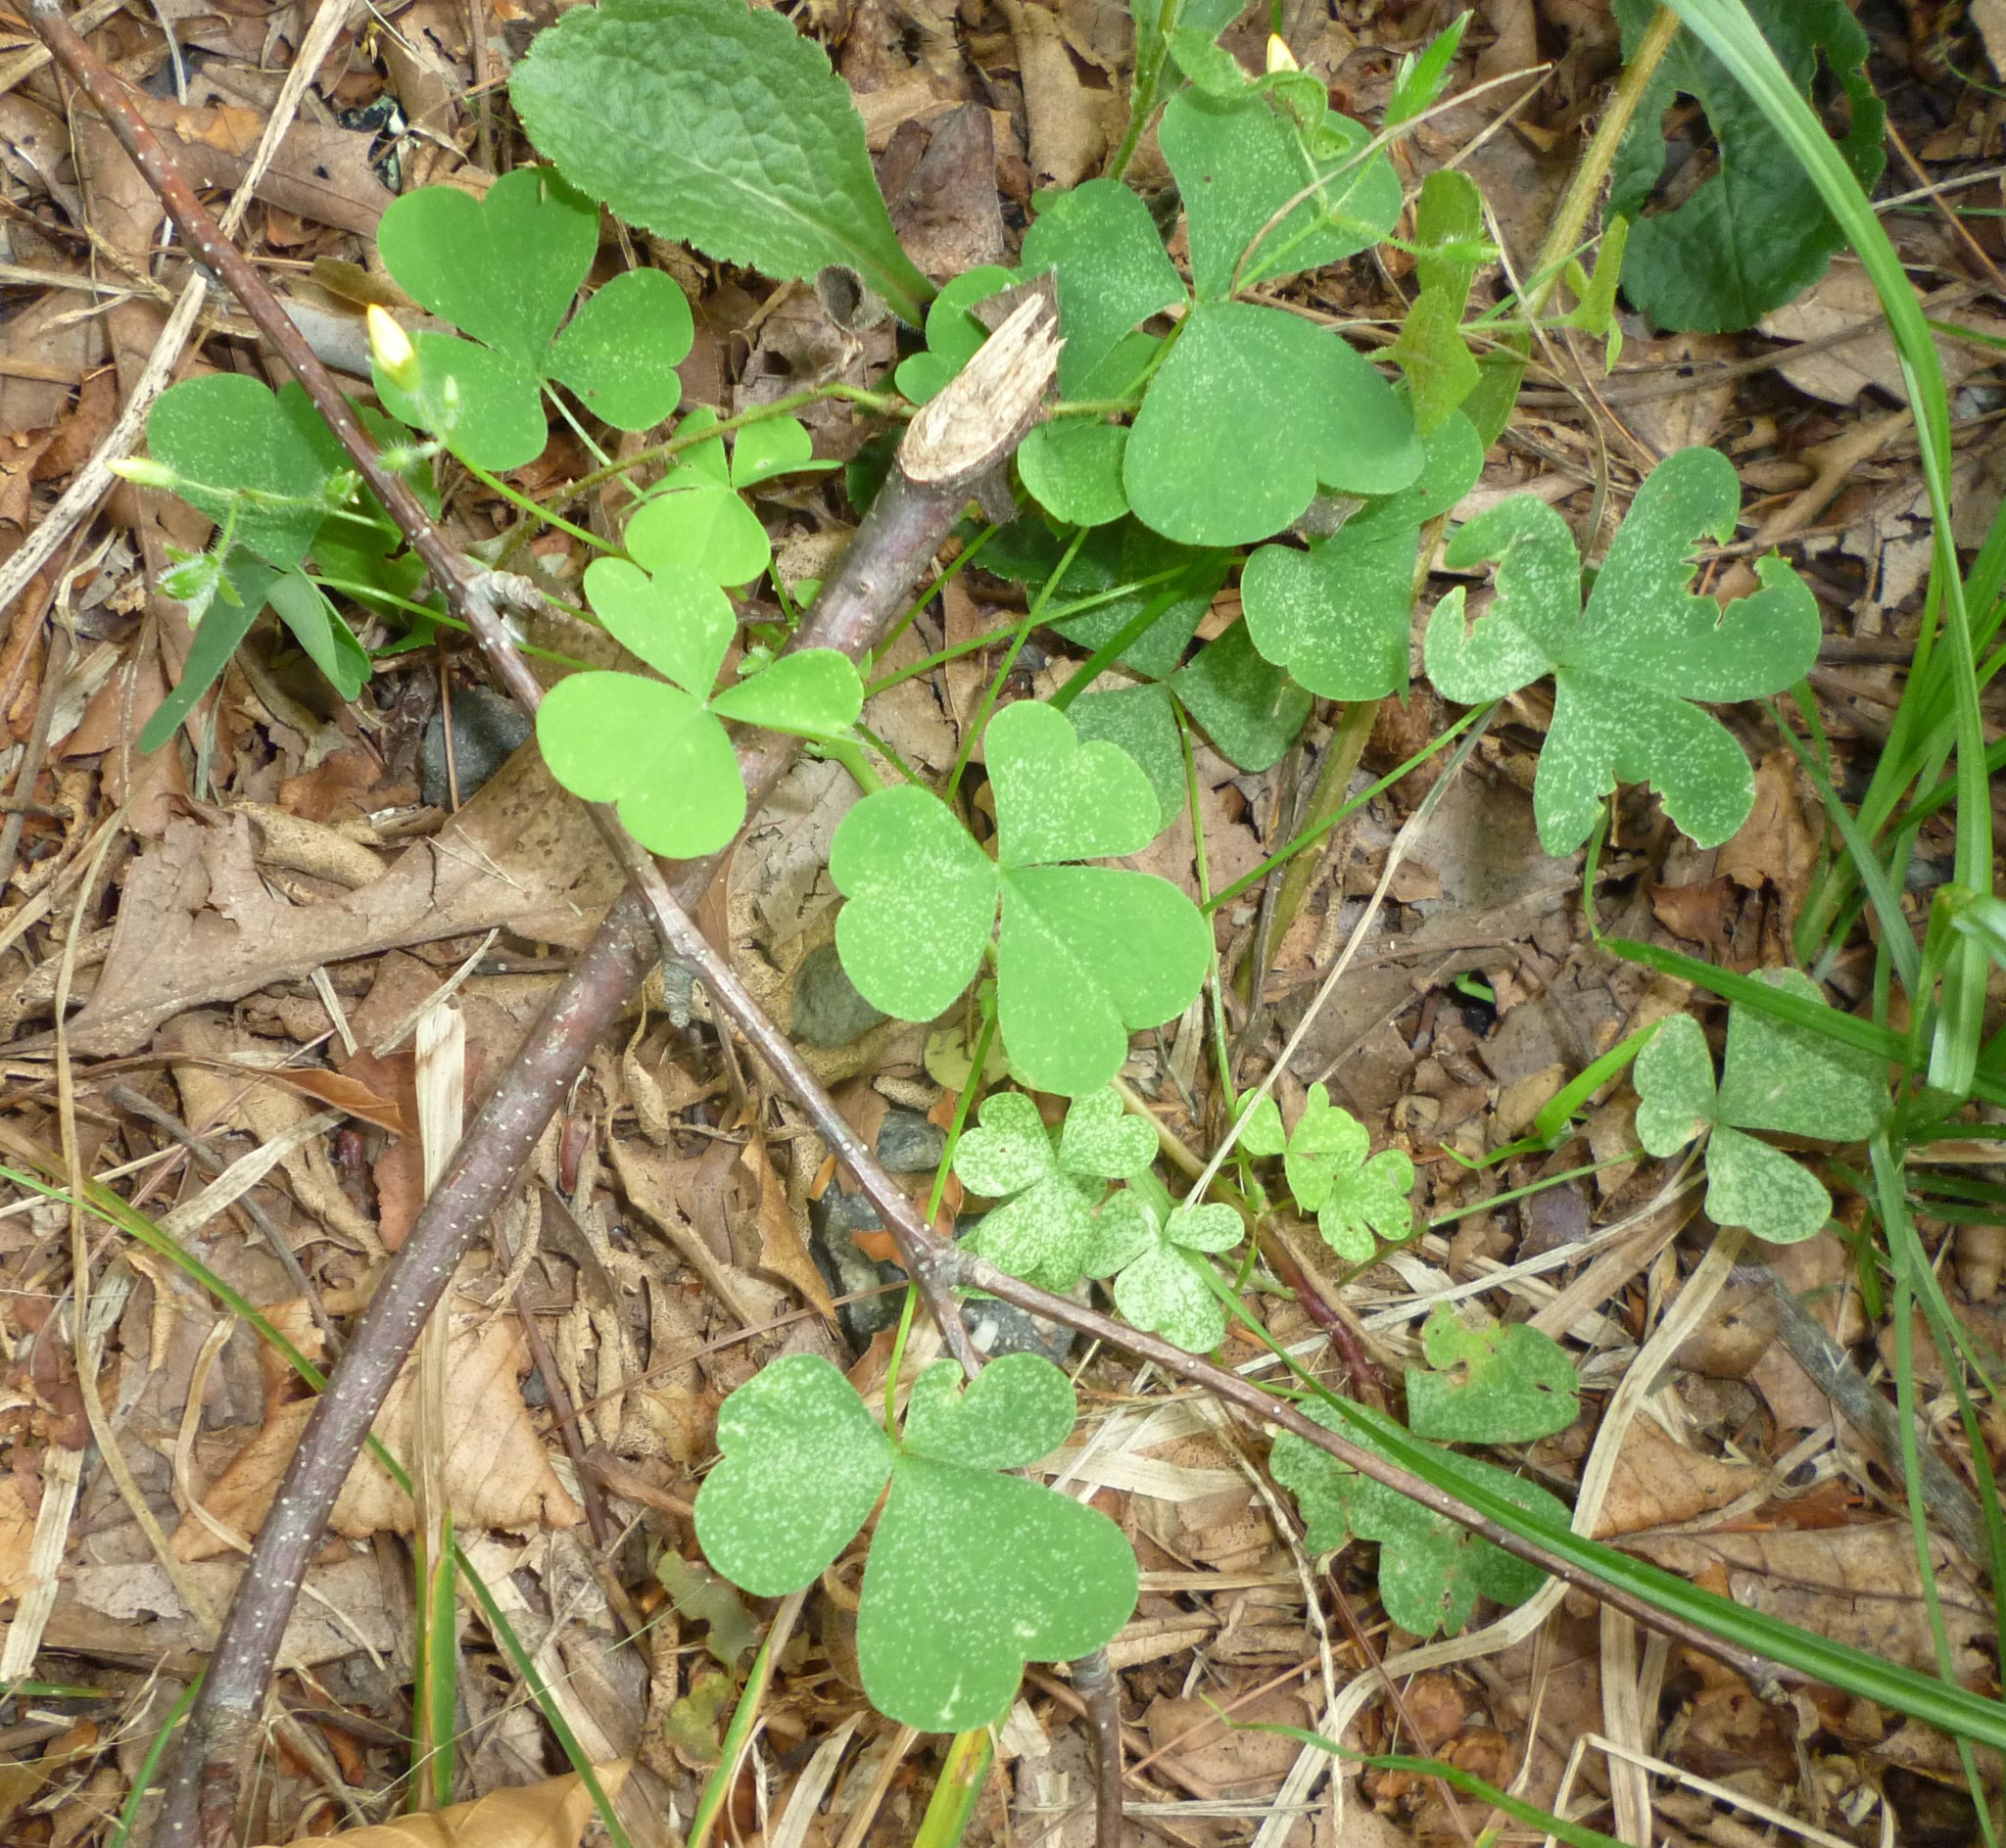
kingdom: Plantae
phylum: Tracheophyta
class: Magnoliopsida
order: Oxalidales
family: Oxalidaceae
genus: Oxalis
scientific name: Oxalis stricta
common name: Upright yellow-sorrel
